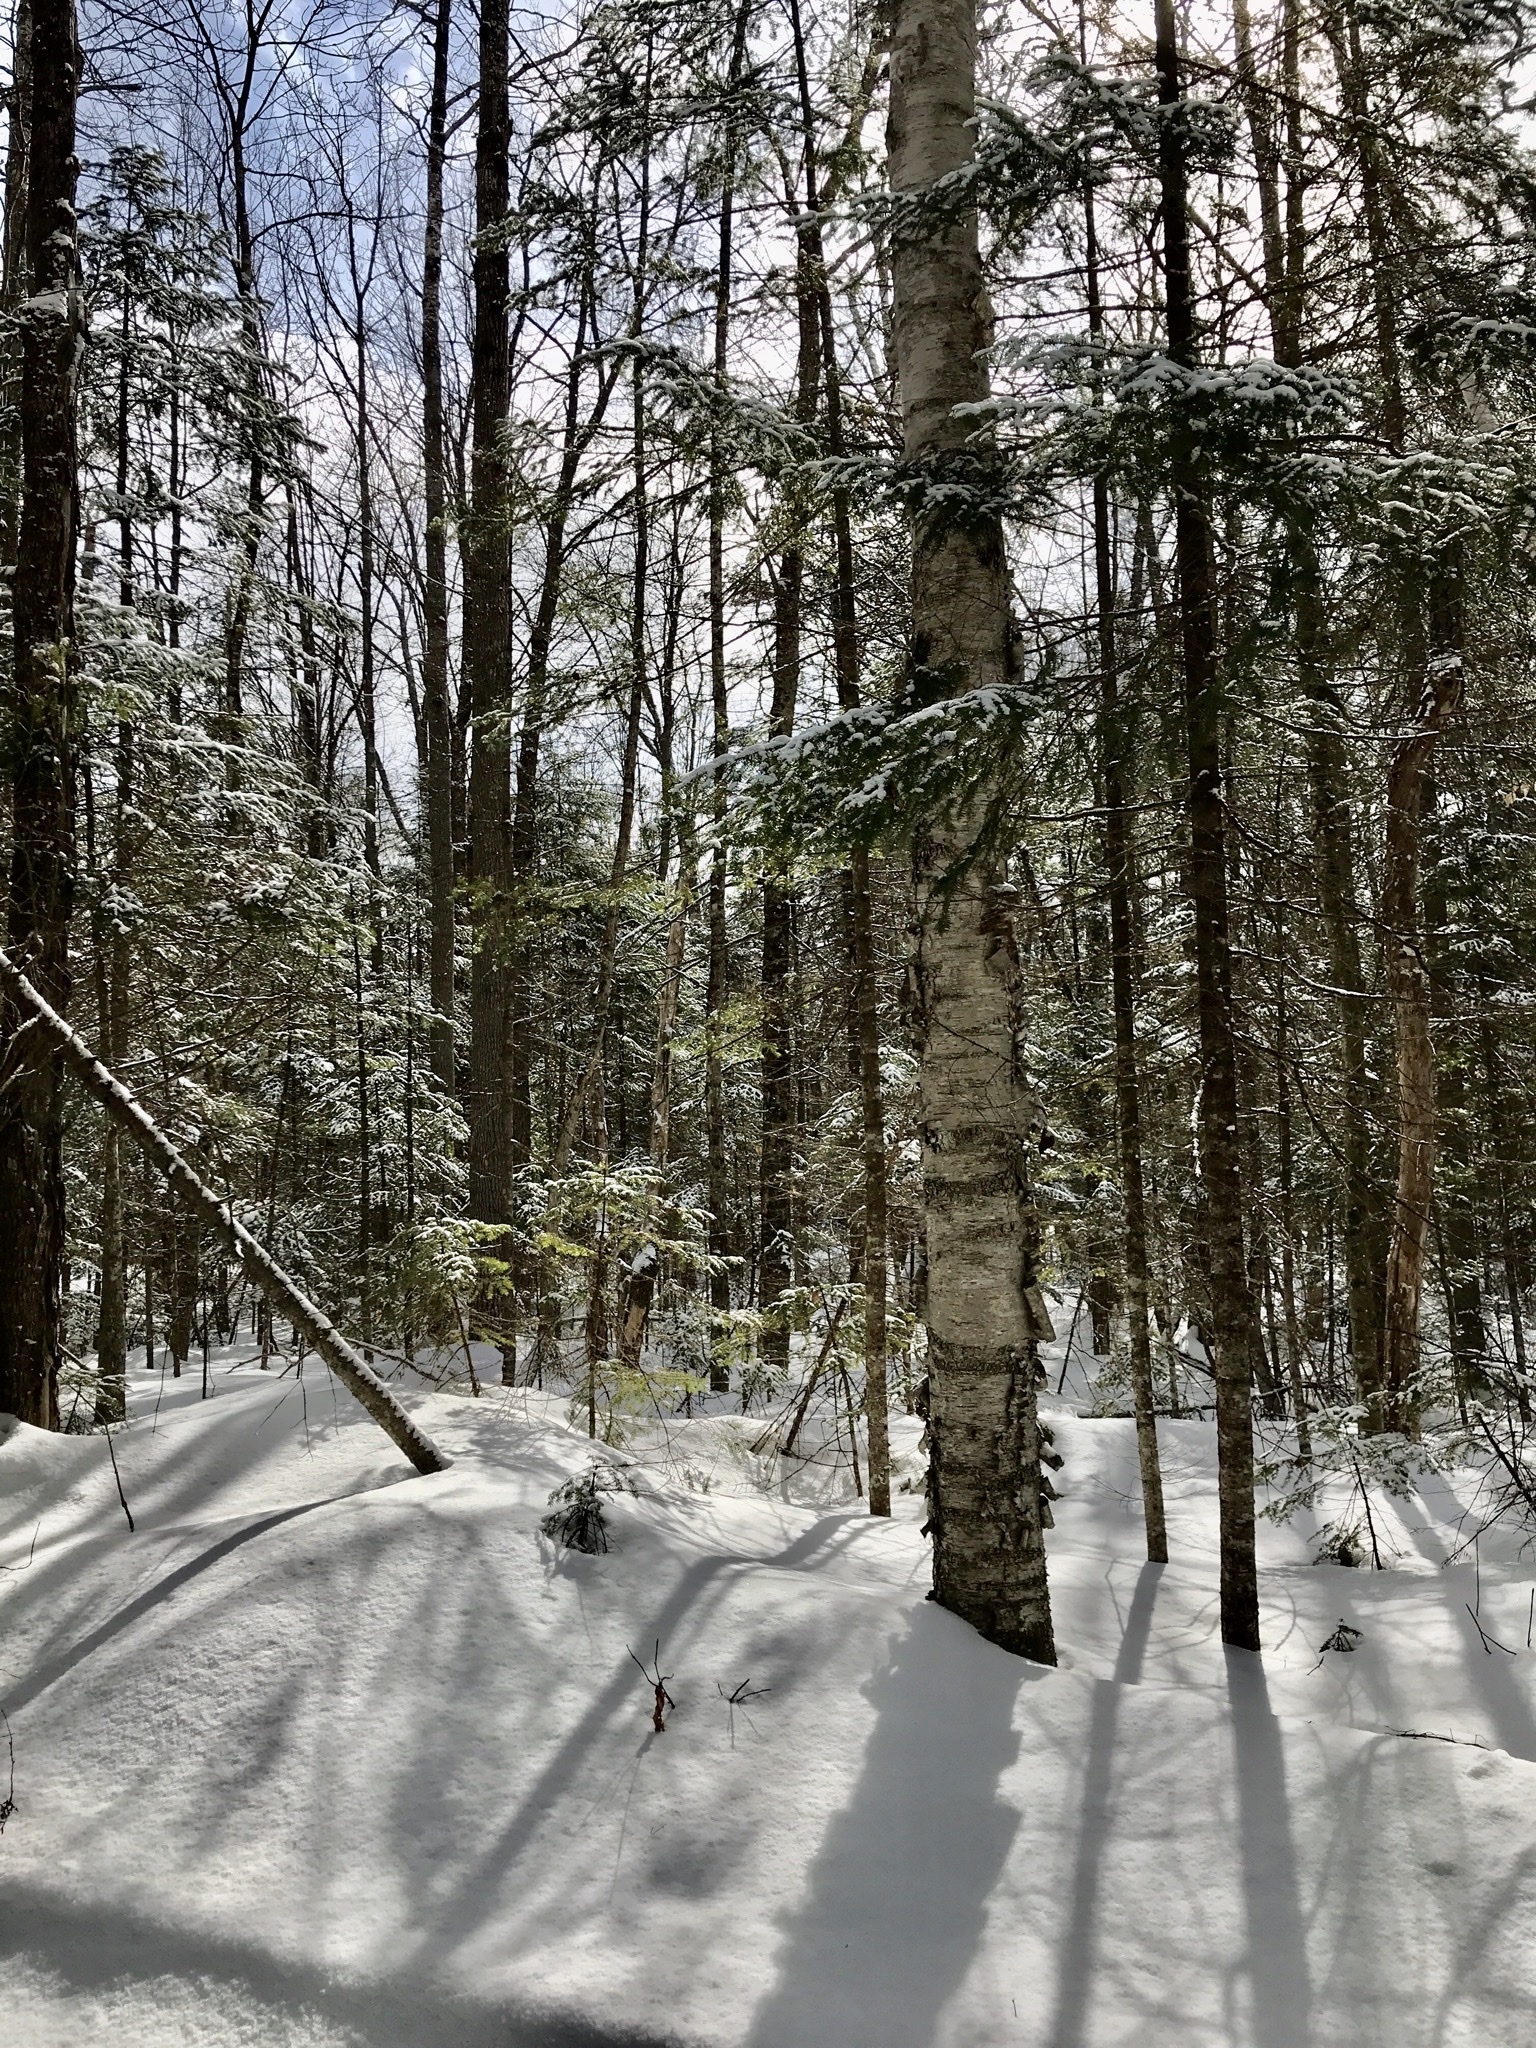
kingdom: Plantae
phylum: Tracheophyta
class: Magnoliopsida
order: Fagales
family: Betulaceae
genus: Betula
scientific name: Betula papyrifera
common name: Paper birch
